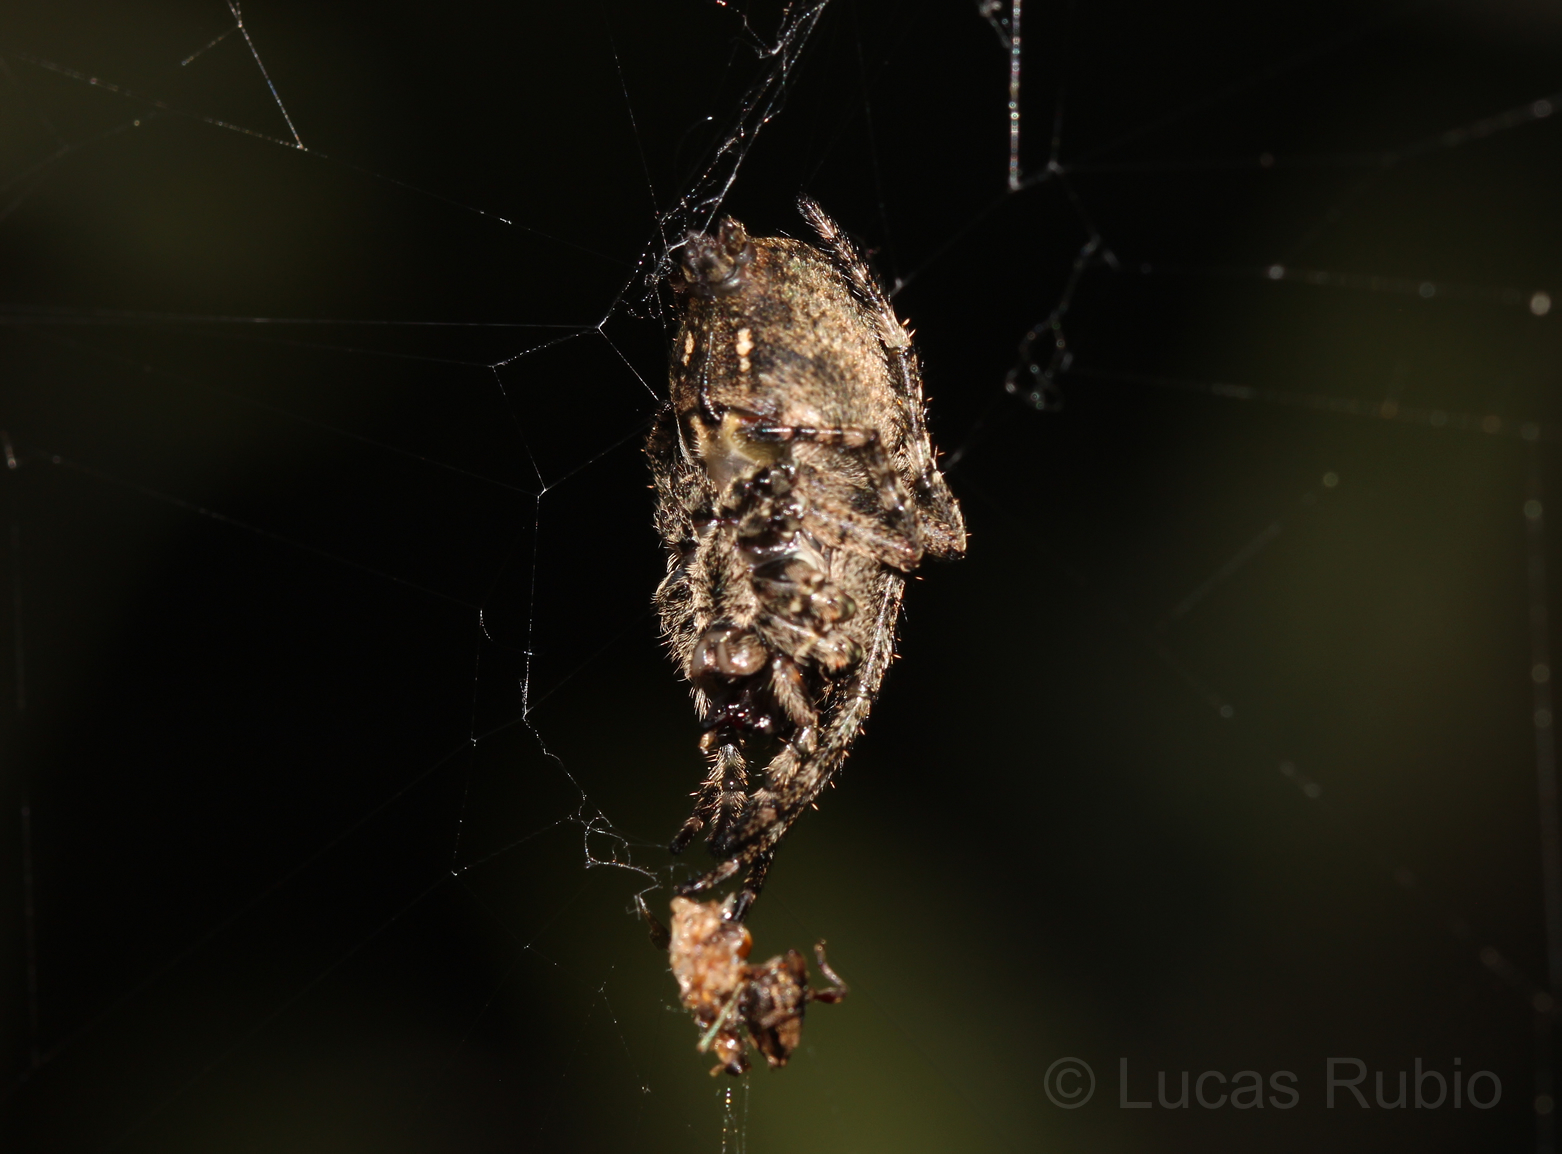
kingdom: Animalia
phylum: Arthropoda
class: Arachnida
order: Araneae
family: Araneidae
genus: Parawixia
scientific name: Parawixia audax
